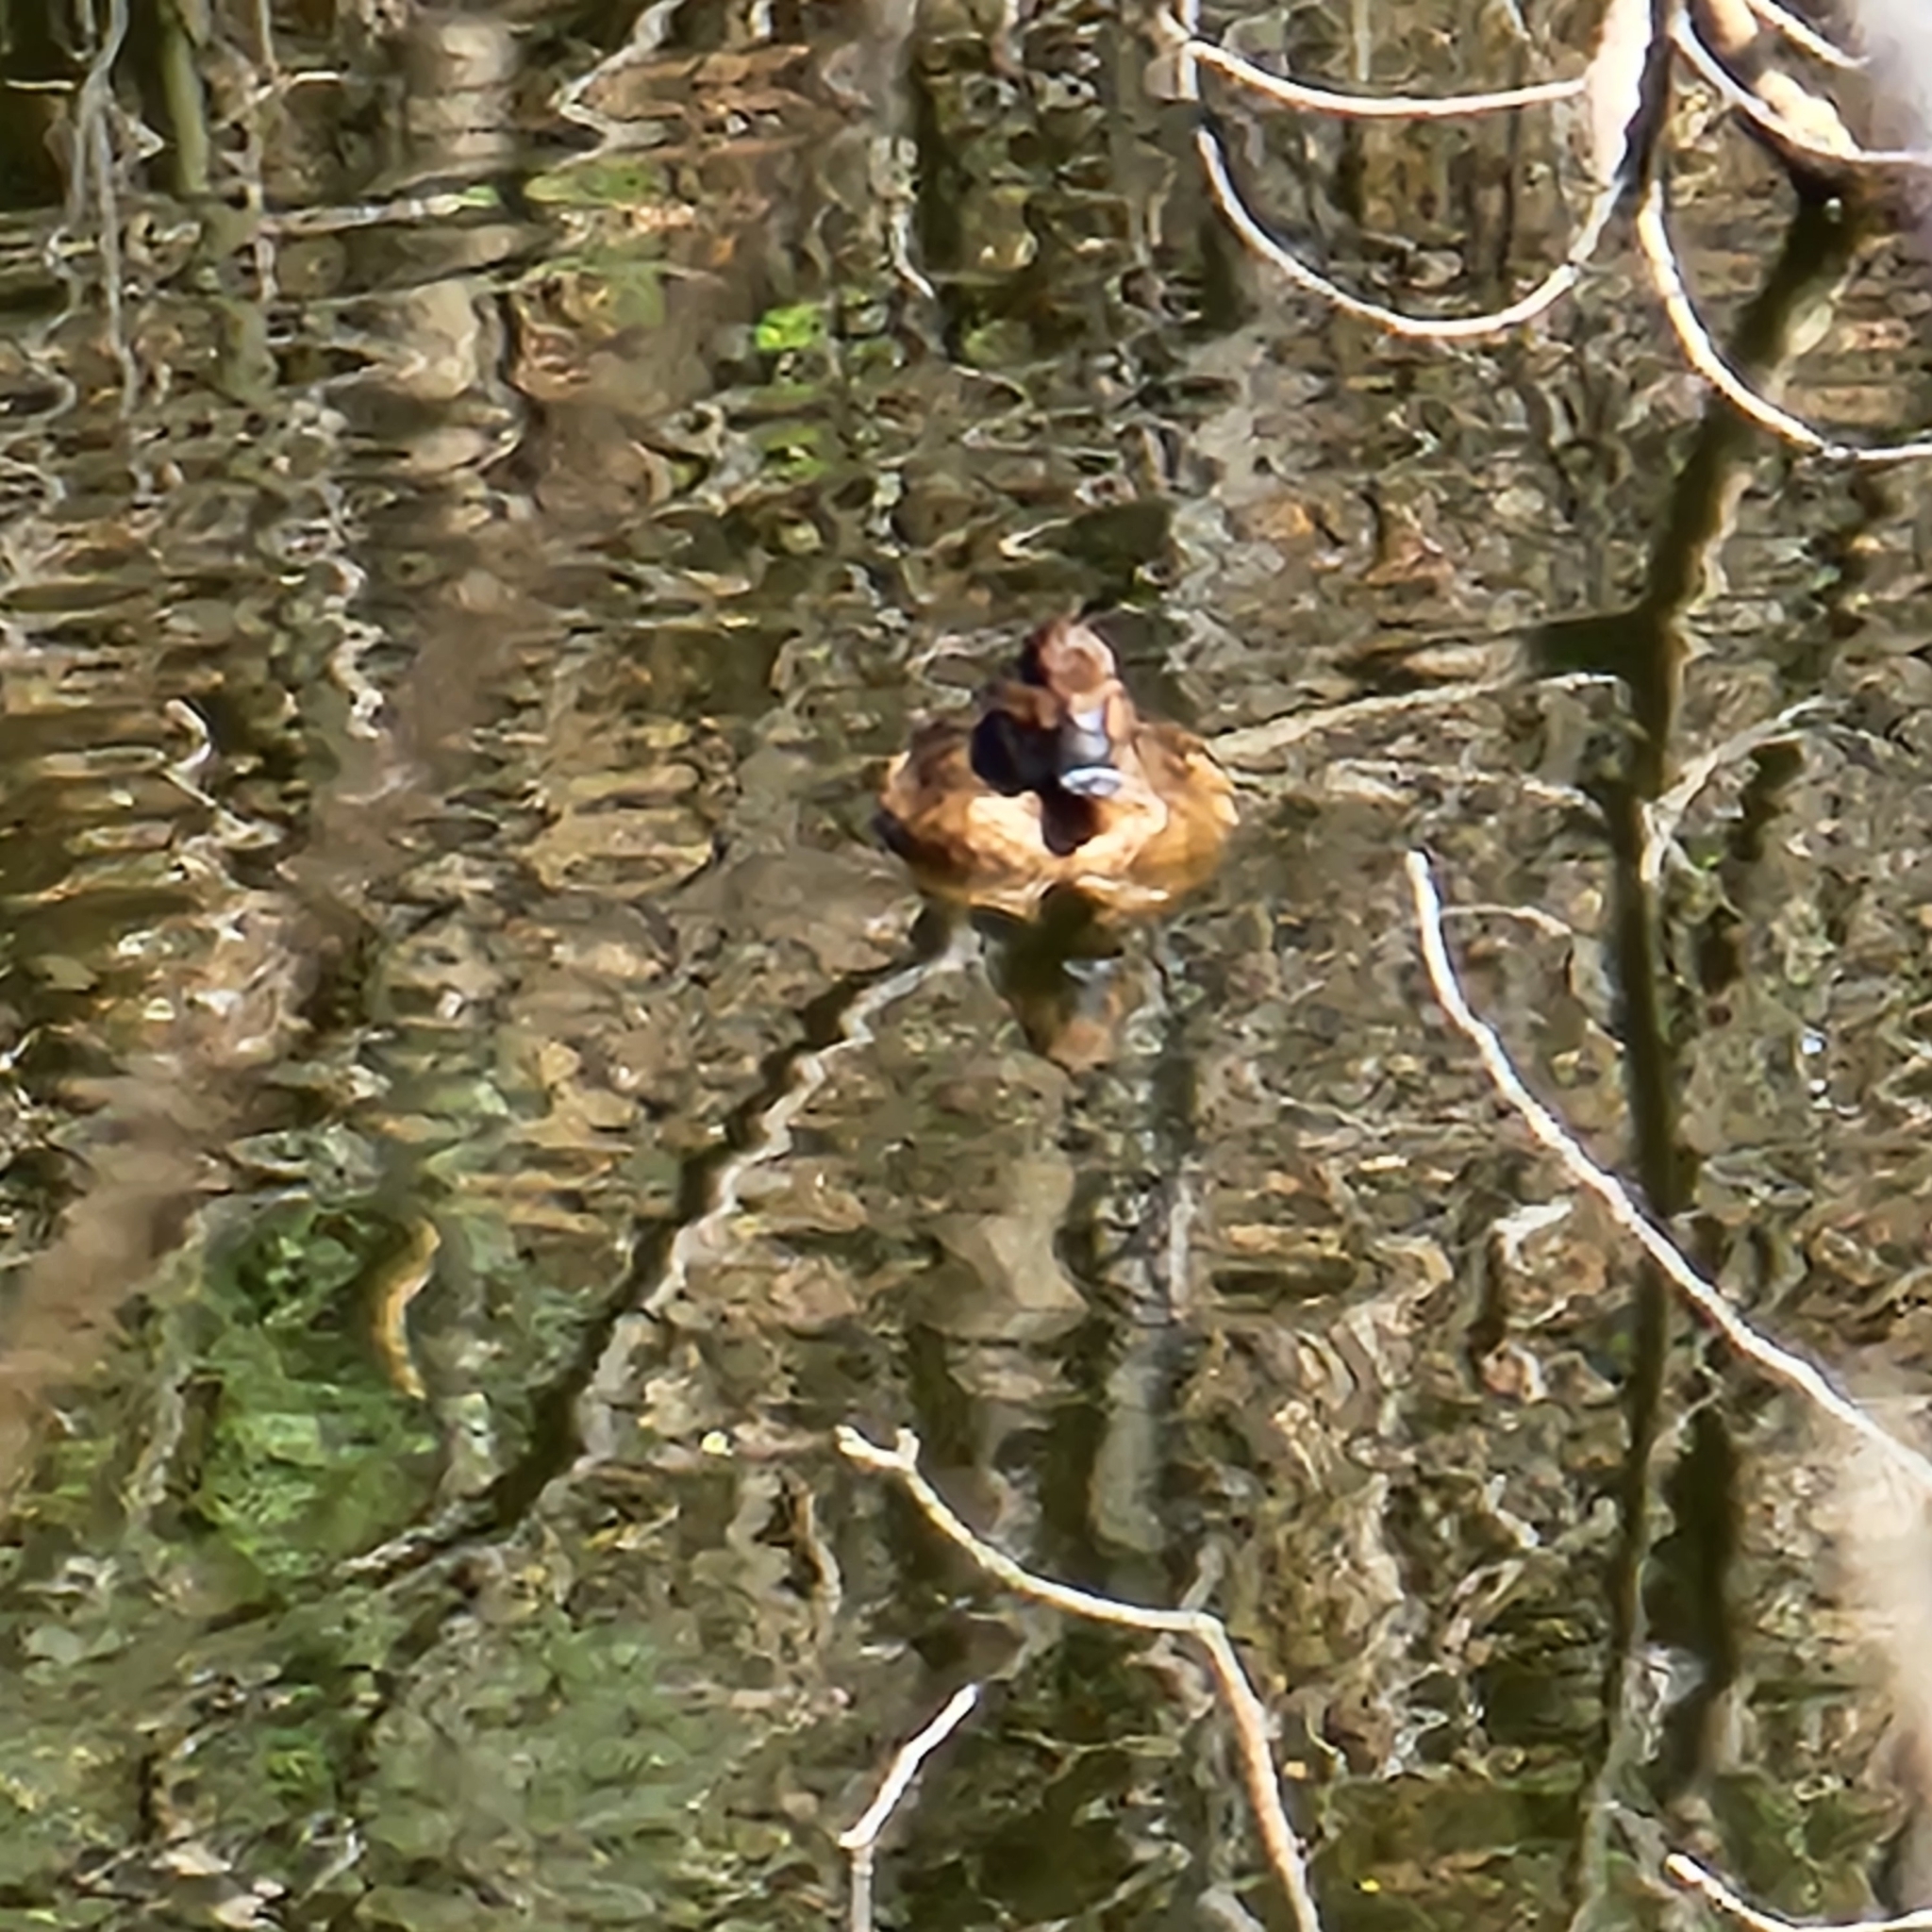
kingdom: Animalia
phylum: Chordata
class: Aves
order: Anseriformes
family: Anatidae
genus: Aythya
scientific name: Aythya australis
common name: Hardhead
